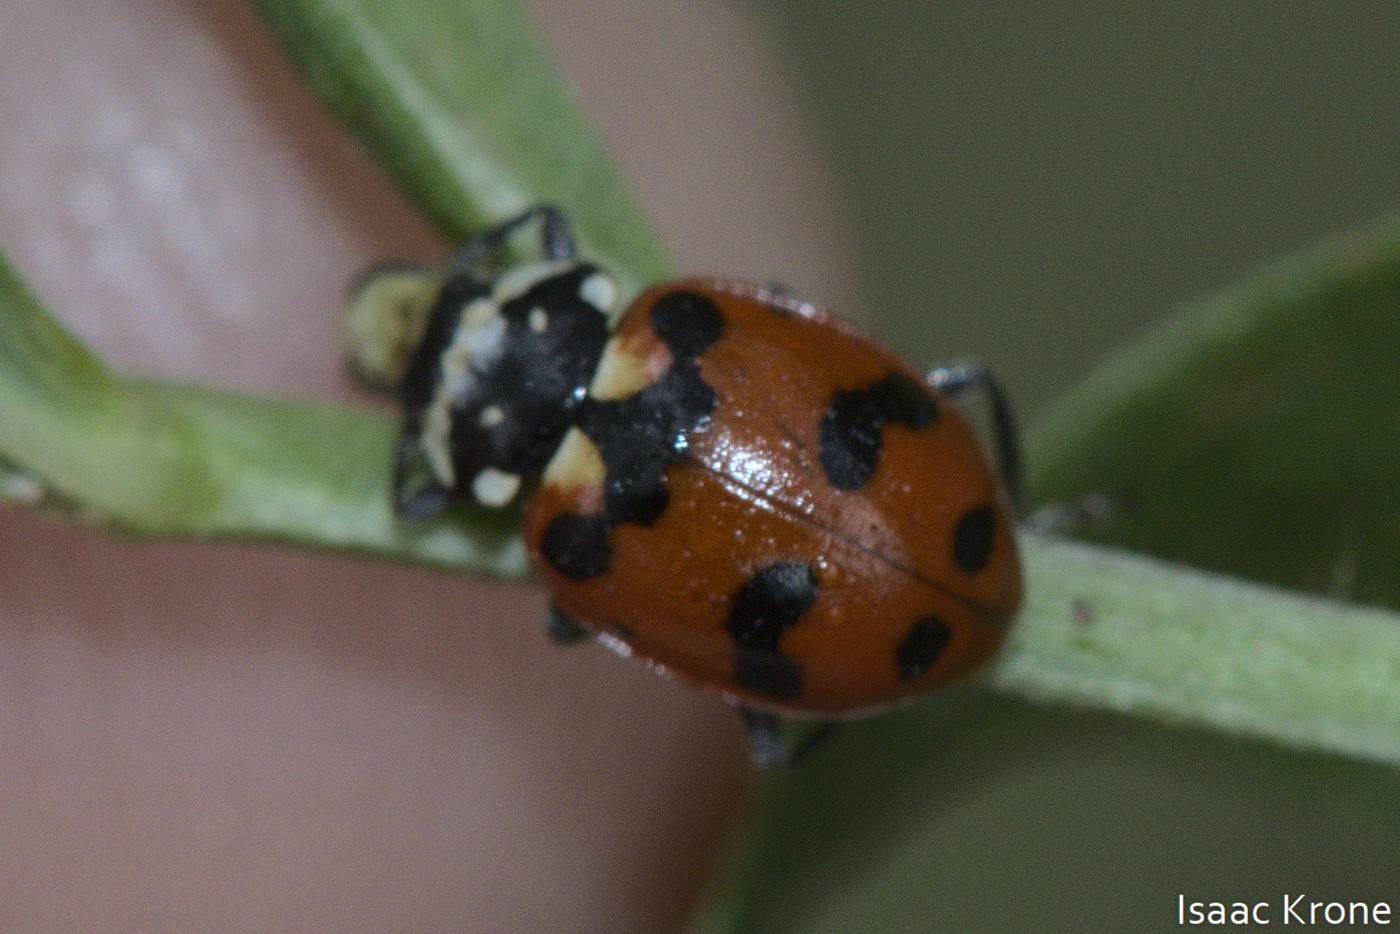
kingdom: Animalia
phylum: Arthropoda
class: Insecta
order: Coleoptera
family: Coccinellidae
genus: Hippodamia
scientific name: Hippodamia caseyi
